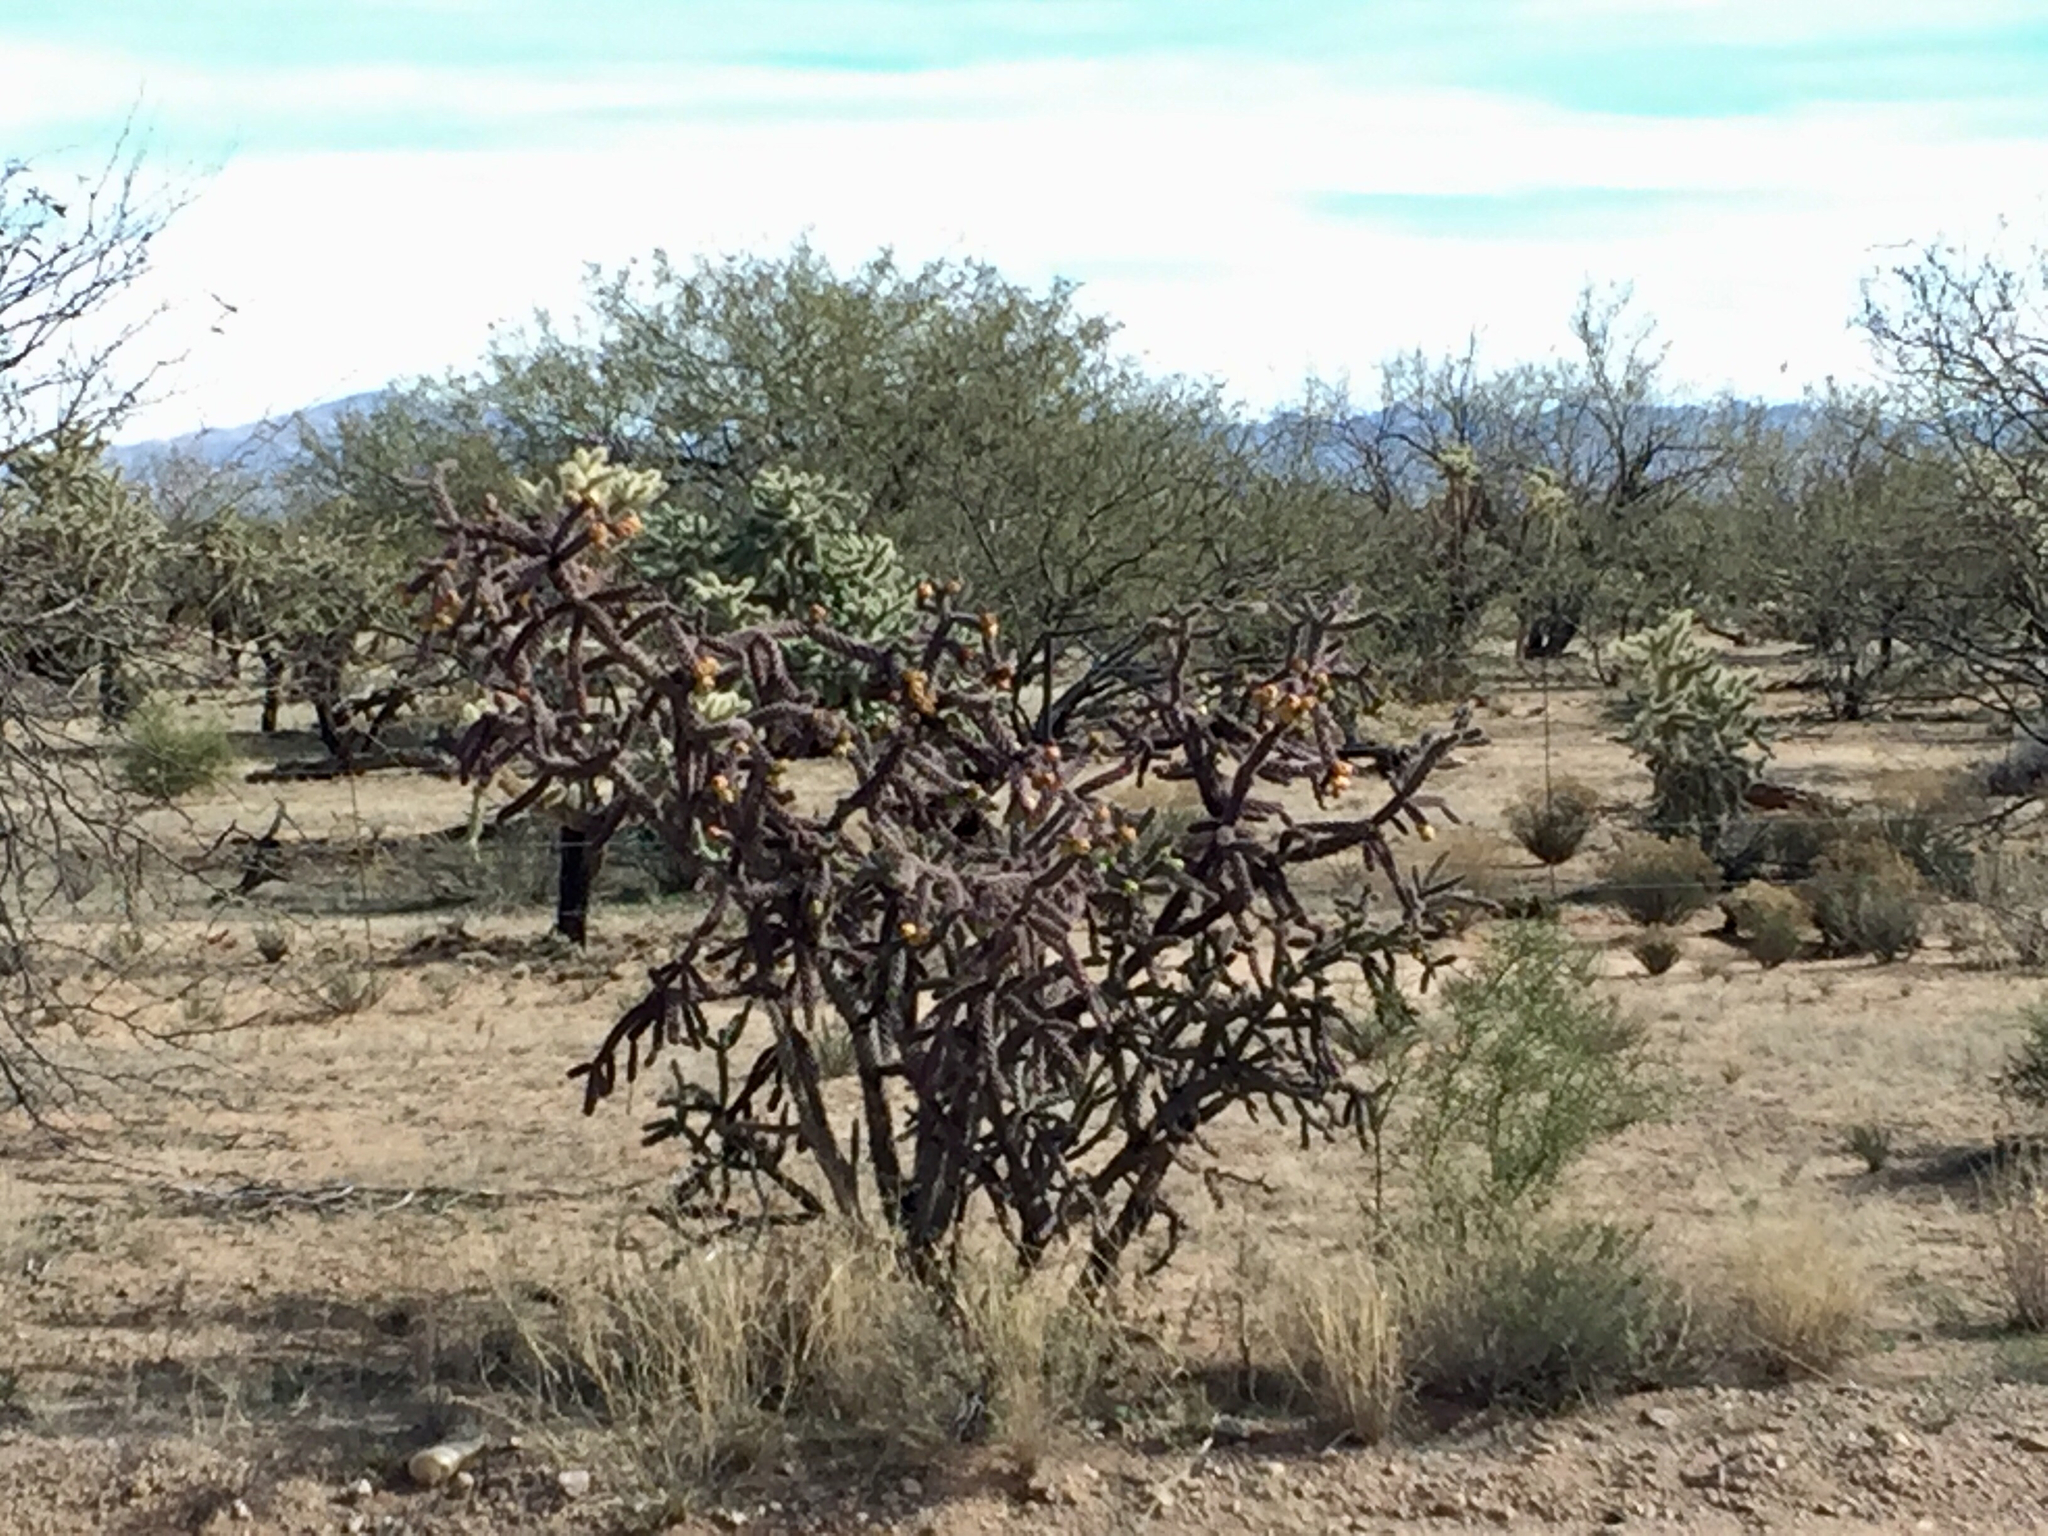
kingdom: Plantae
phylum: Tracheophyta
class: Magnoliopsida
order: Caryophyllales
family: Cactaceae
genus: Cylindropuntia
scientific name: Cylindropuntia thurberi
